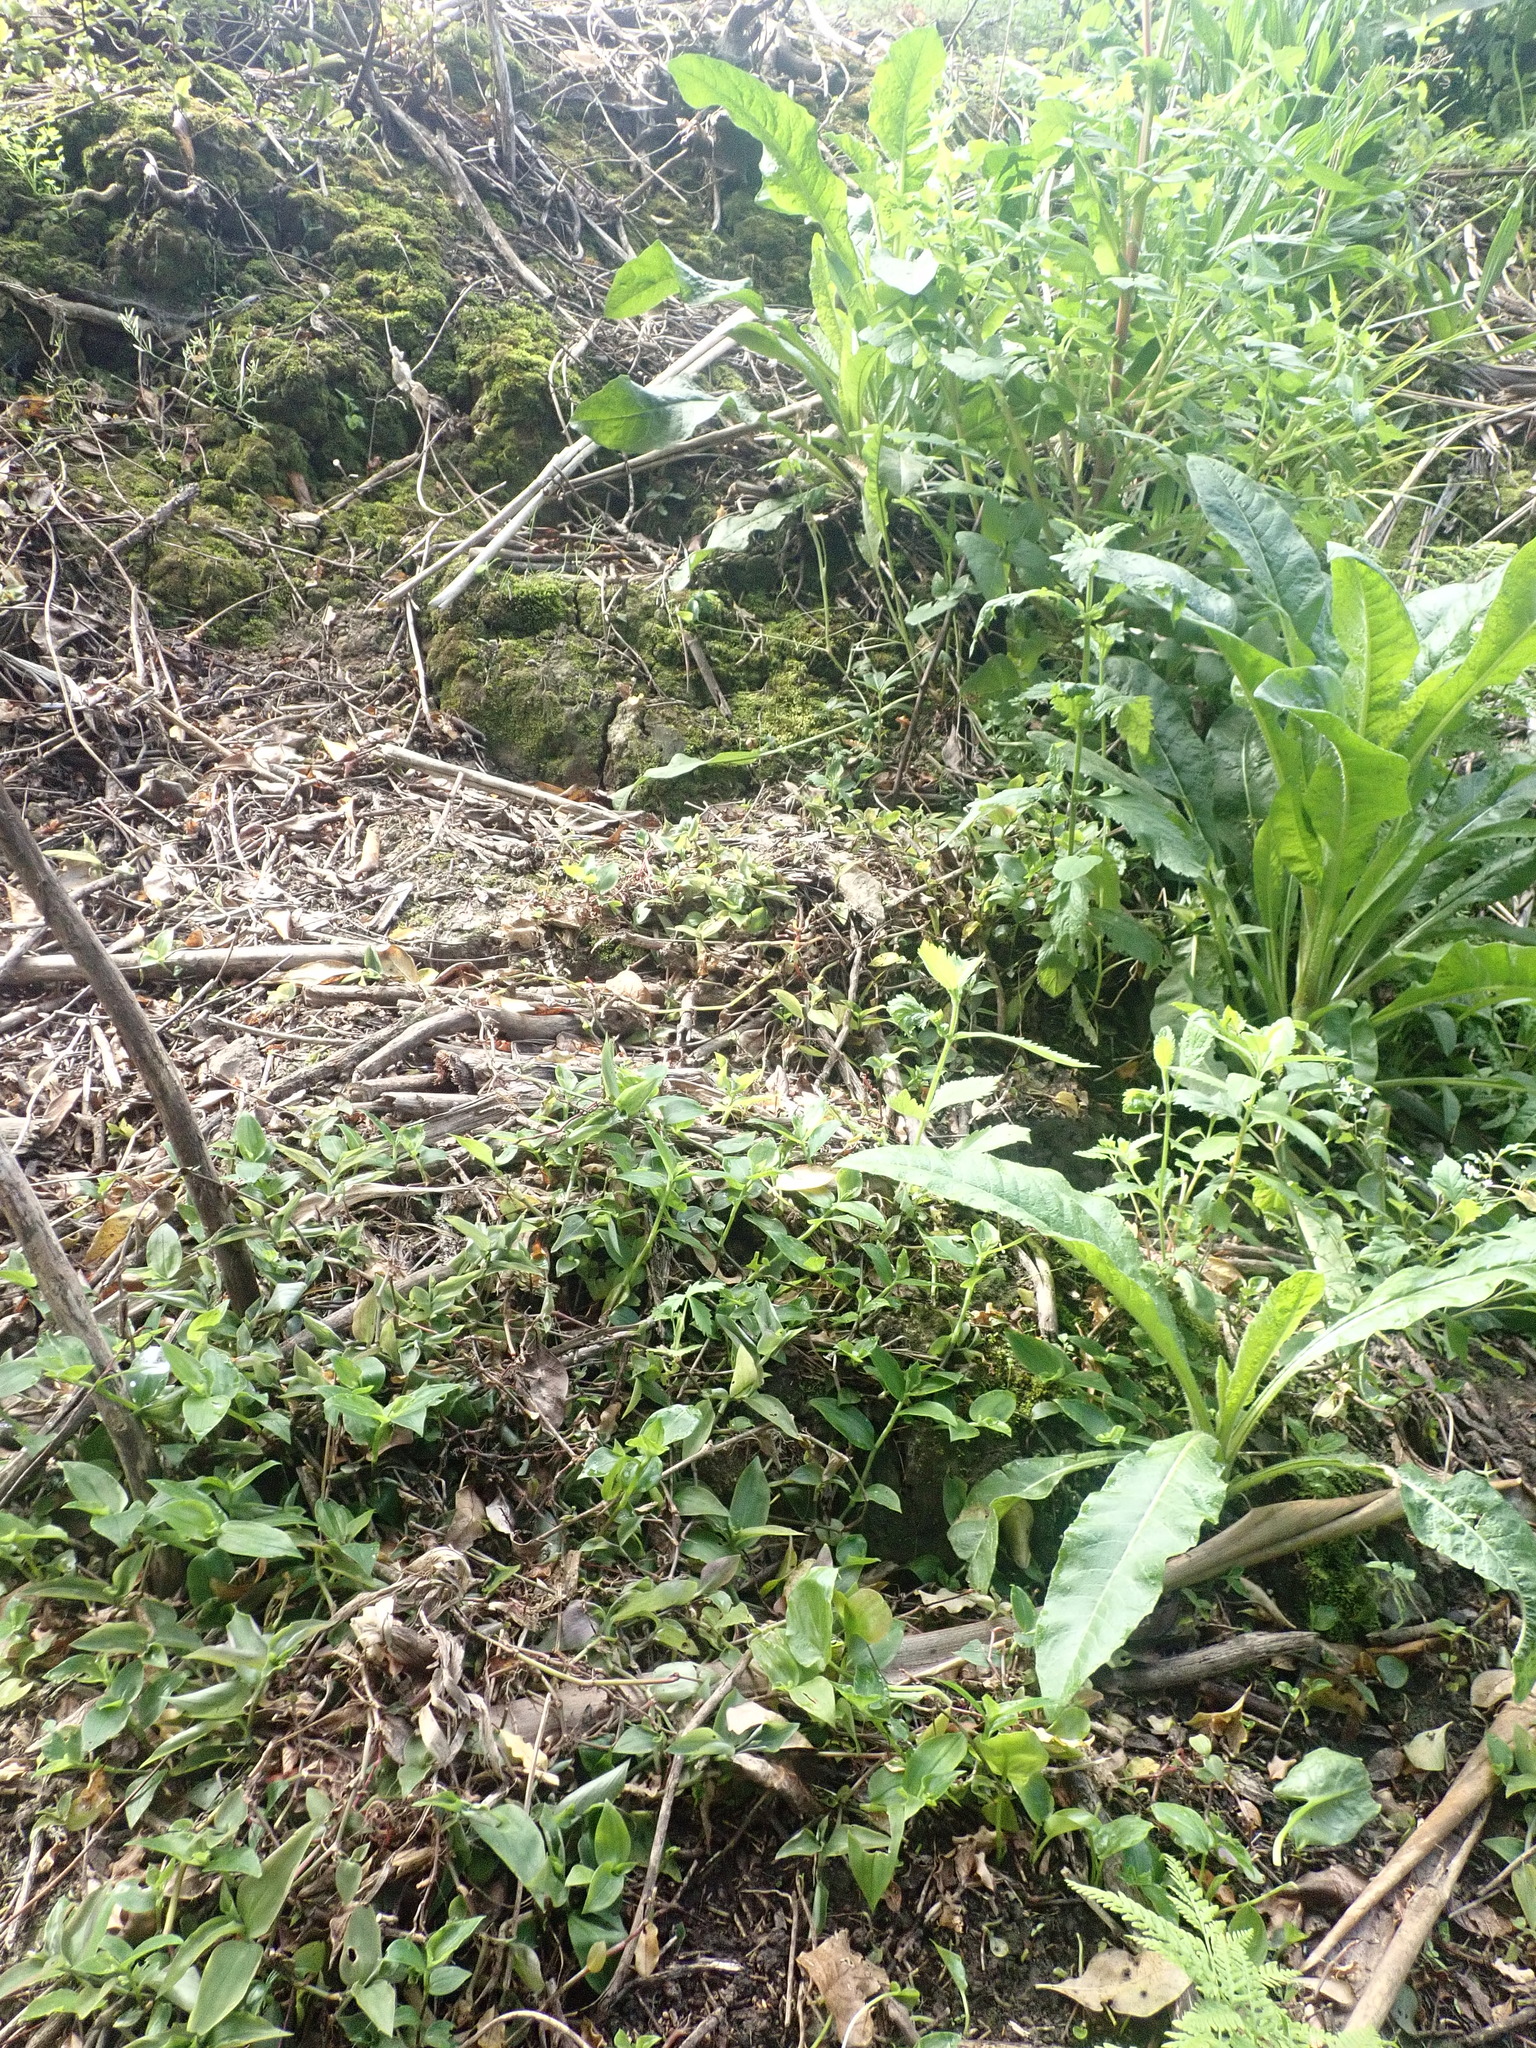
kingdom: Plantae
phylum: Tracheophyta
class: Liliopsida
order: Commelinales
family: Commelinaceae
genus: Tradescantia
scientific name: Tradescantia fluminensis
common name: Wandering-jew
